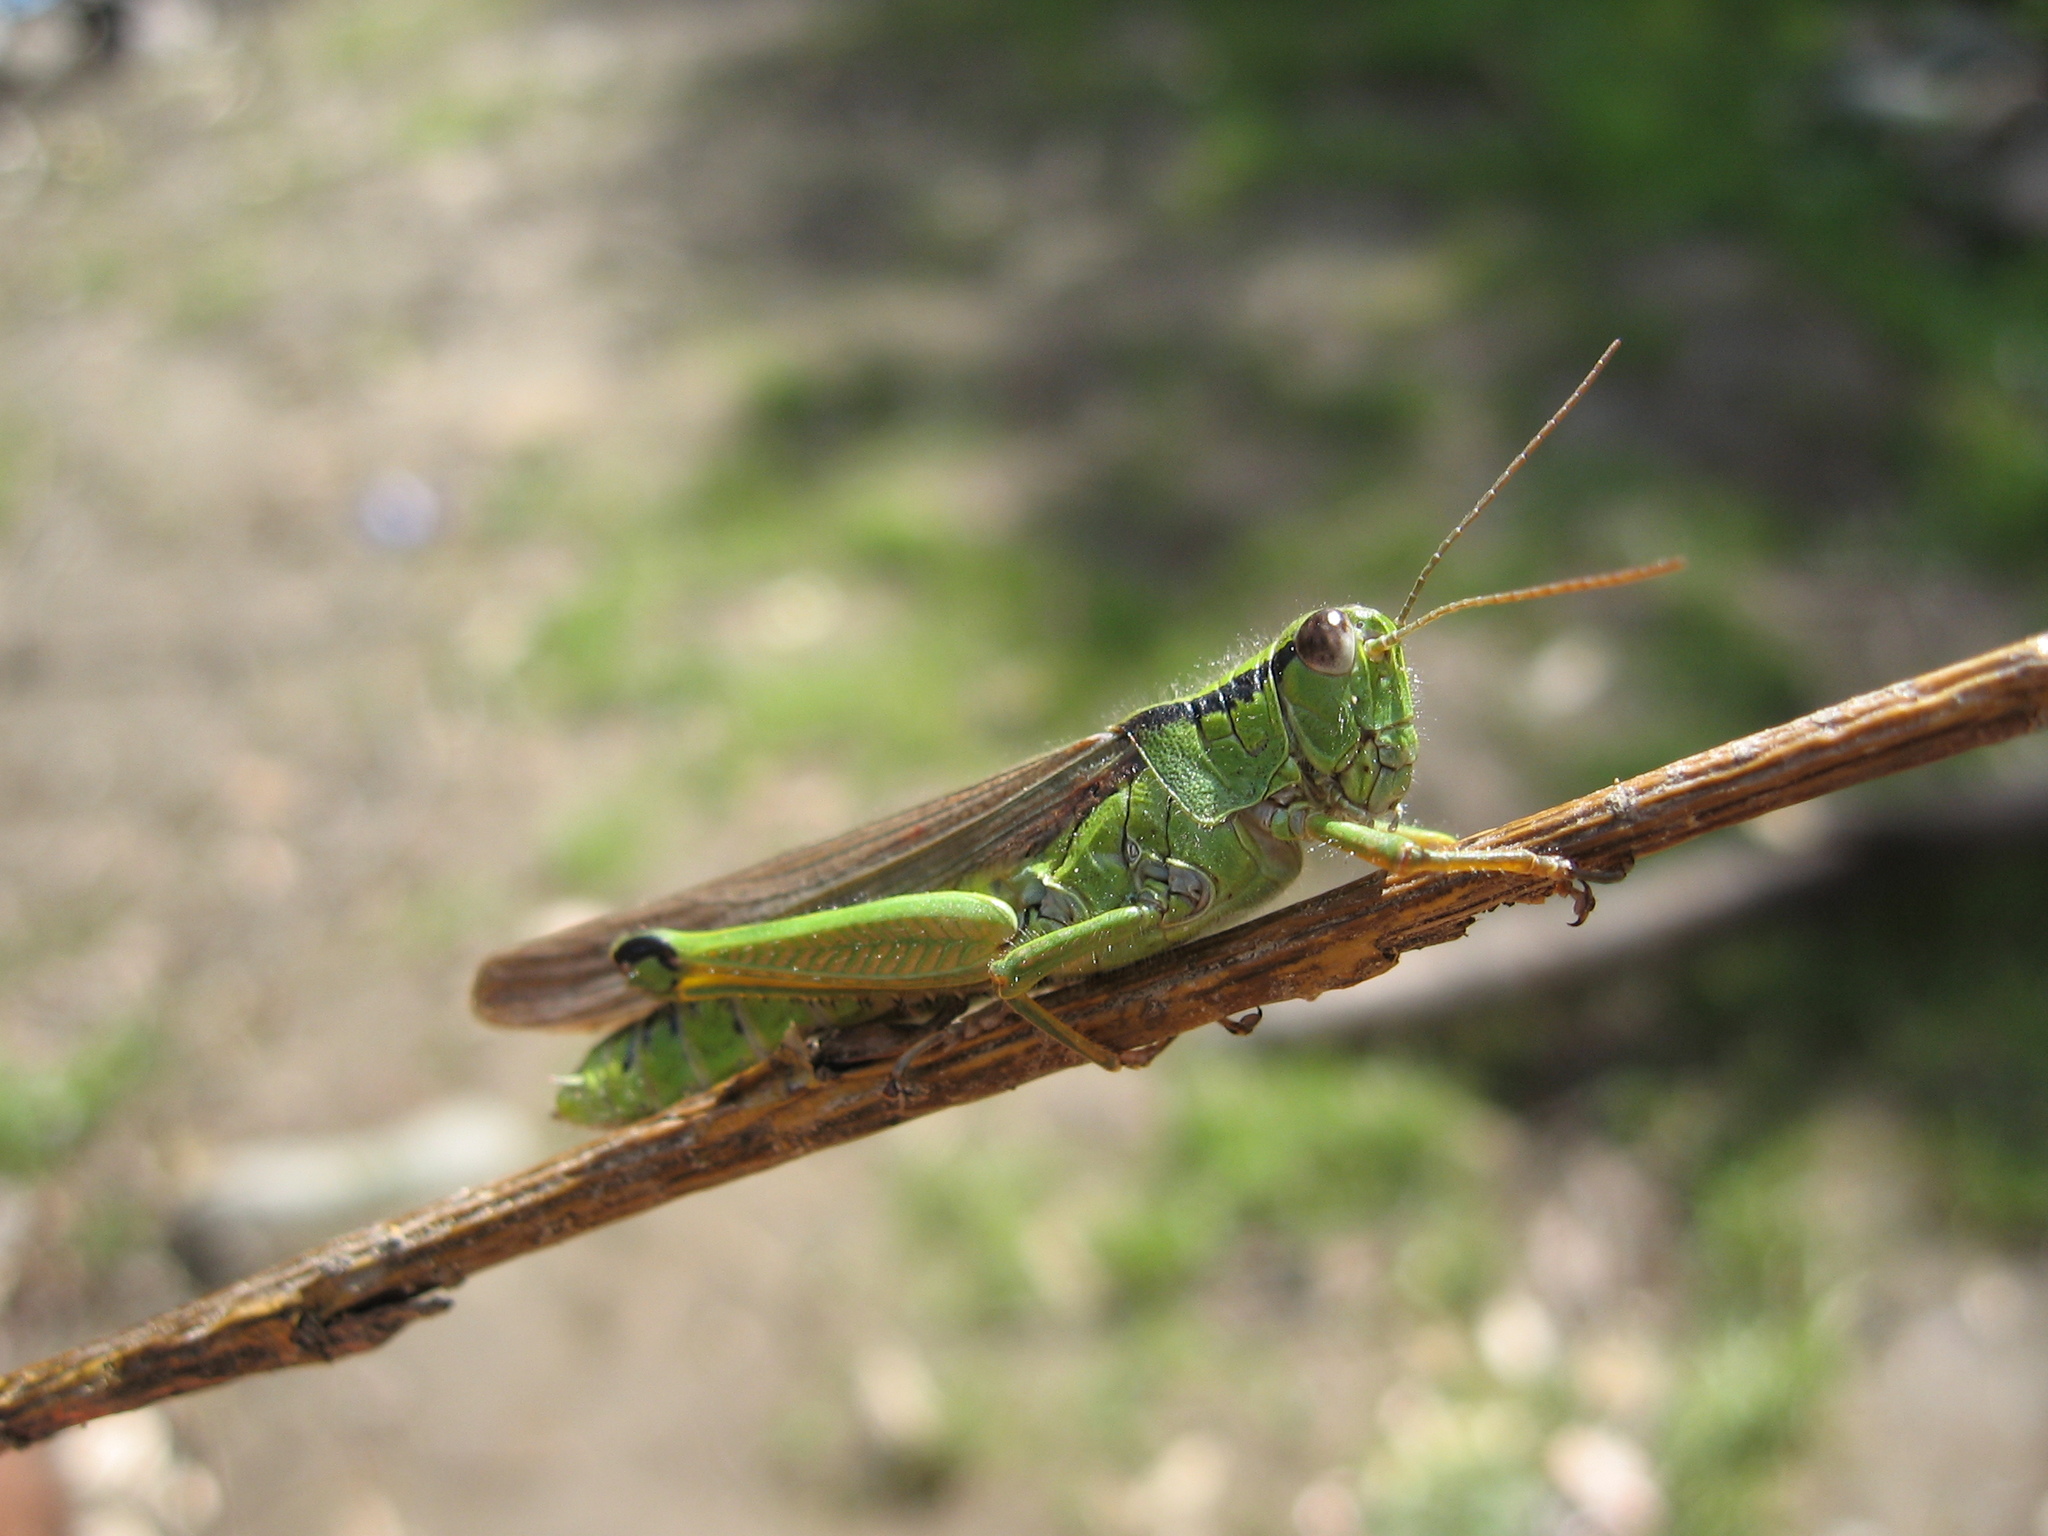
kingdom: Animalia
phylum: Arthropoda
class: Insecta
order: Orthoptera
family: Acrididae
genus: Confusacris
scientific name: Confusacris longipennis
